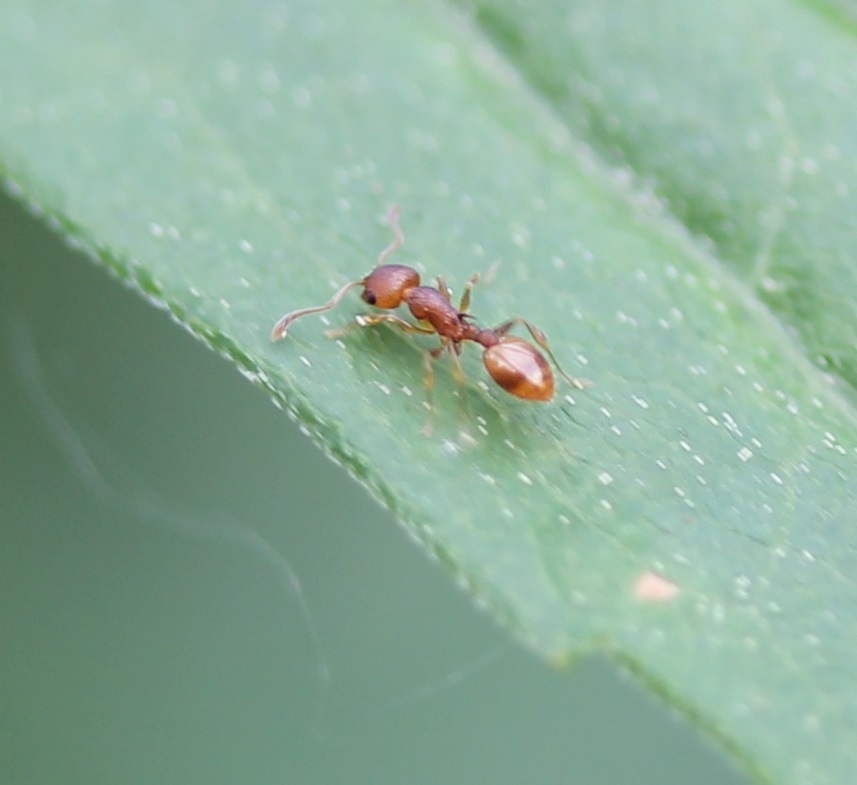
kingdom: Animalia
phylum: Arthropoda
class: Insecta
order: Hymenoptera
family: Formicidae
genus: Temnothorax
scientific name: Temnothorax curvispinosus
